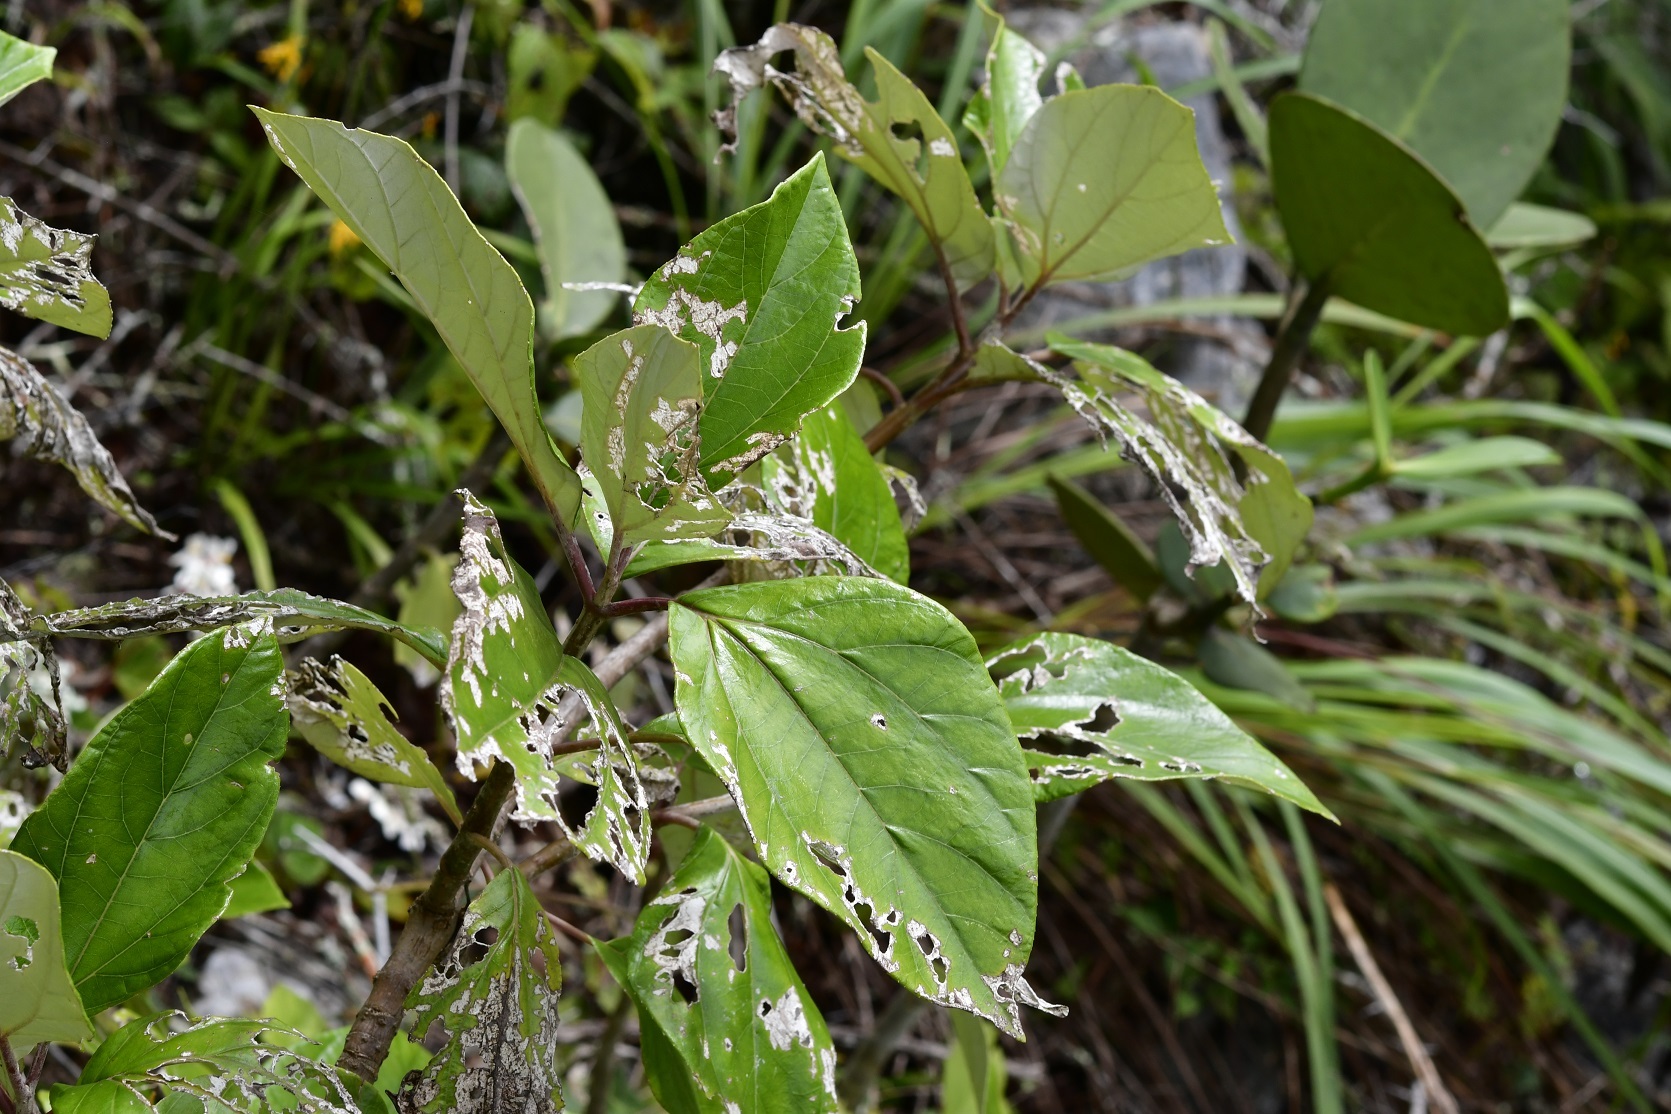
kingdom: Plantae
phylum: Tracheophyta
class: Magnoliopsida
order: Asterales
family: Asteraceae
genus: Sinclairia
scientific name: Sinclairia discolor
